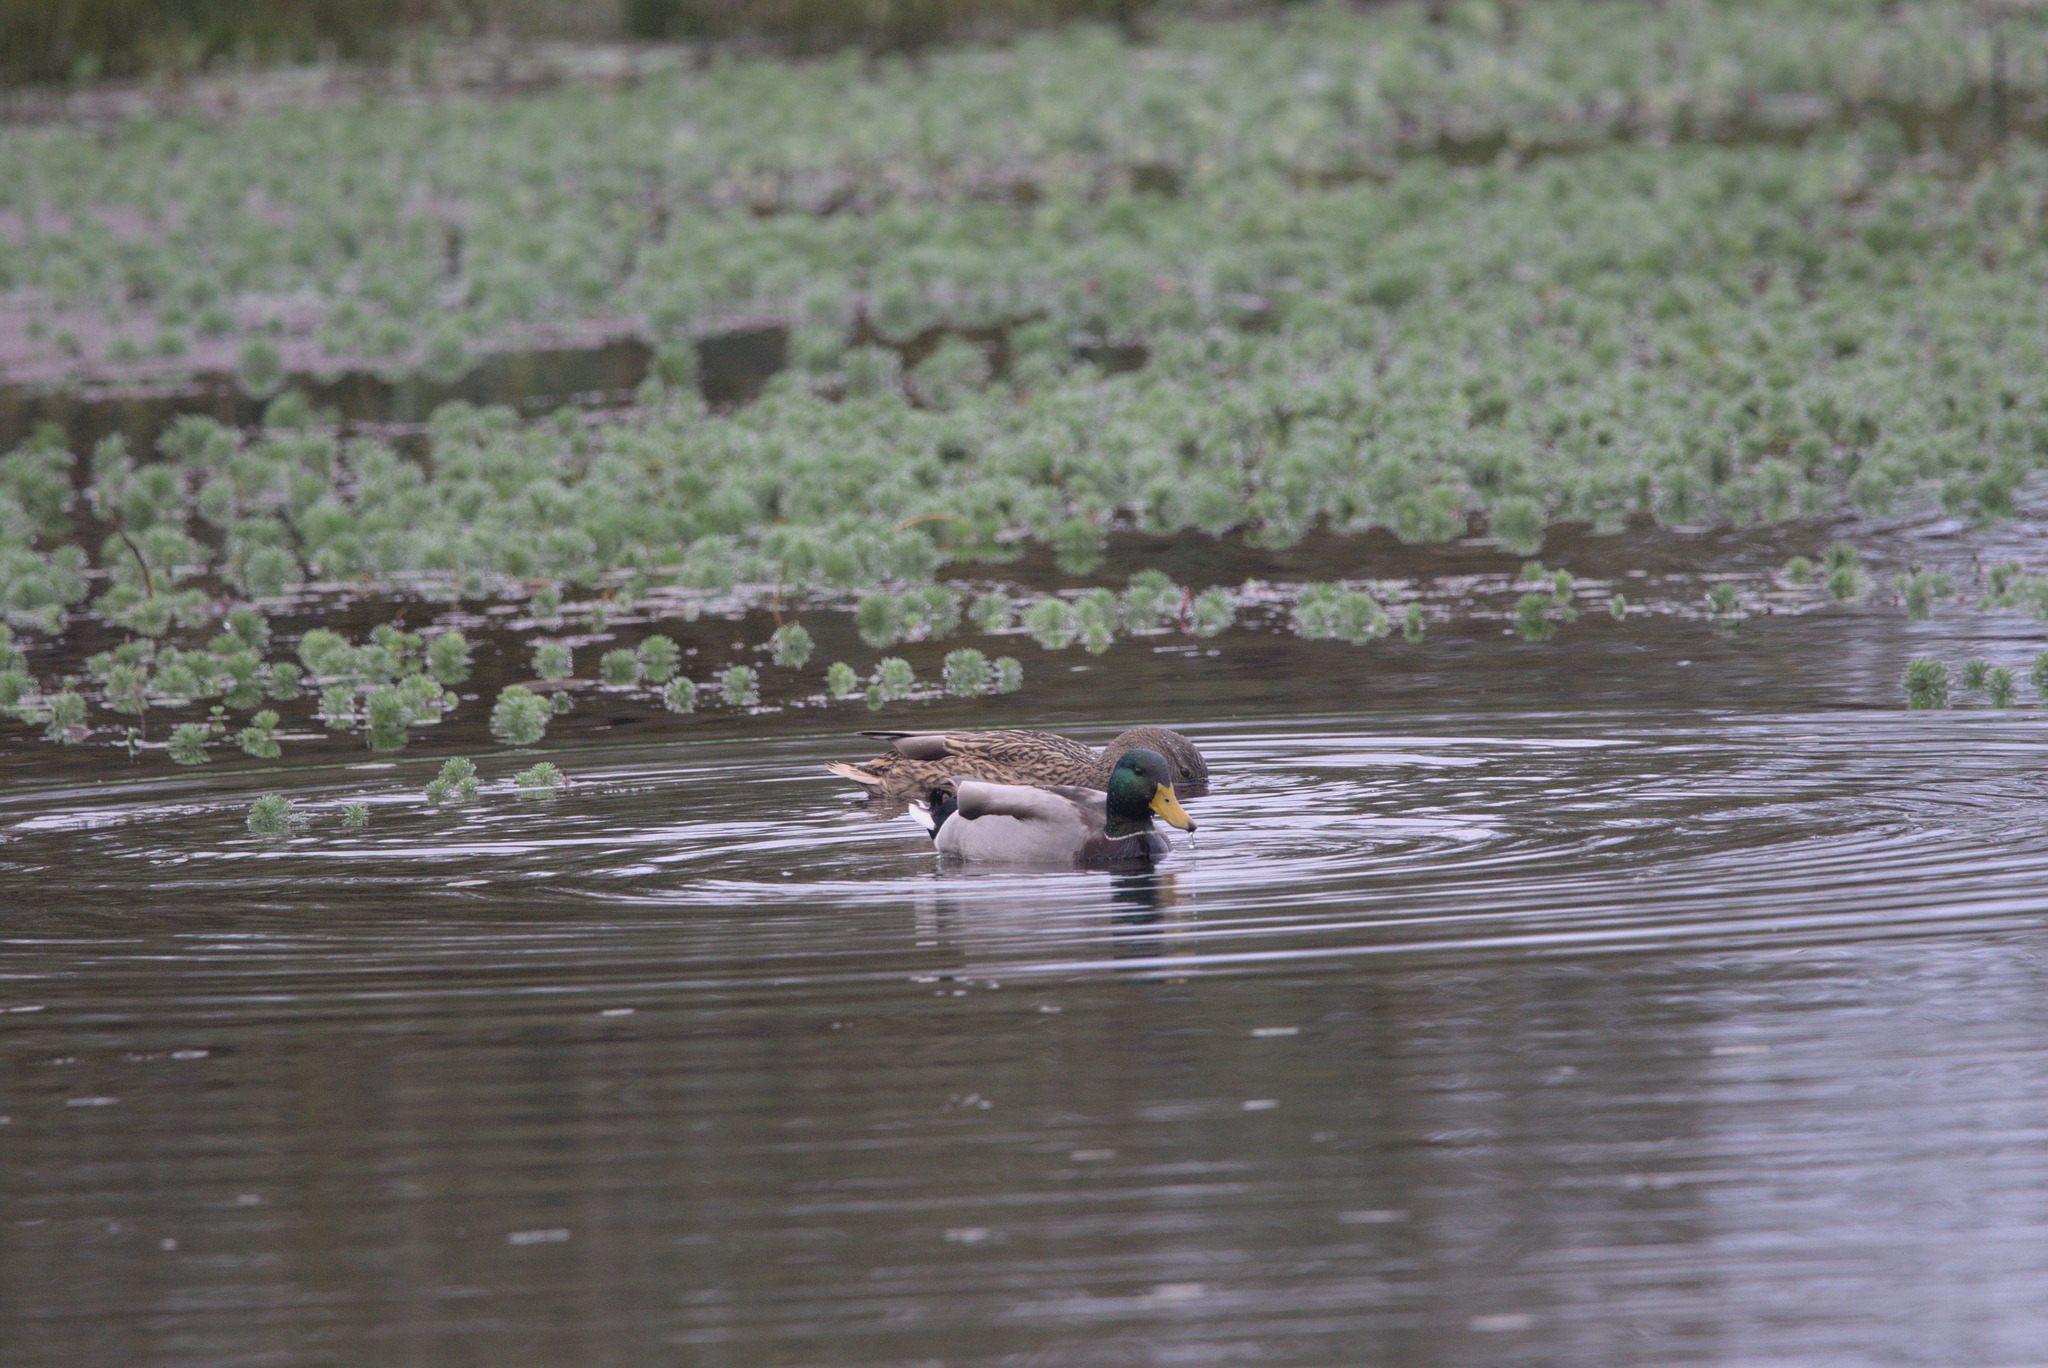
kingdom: Animalia
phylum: Chordata
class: Aves
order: Anseriformes
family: Anatidae
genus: Anas
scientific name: Anas platyrhynchos
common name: Mallard
